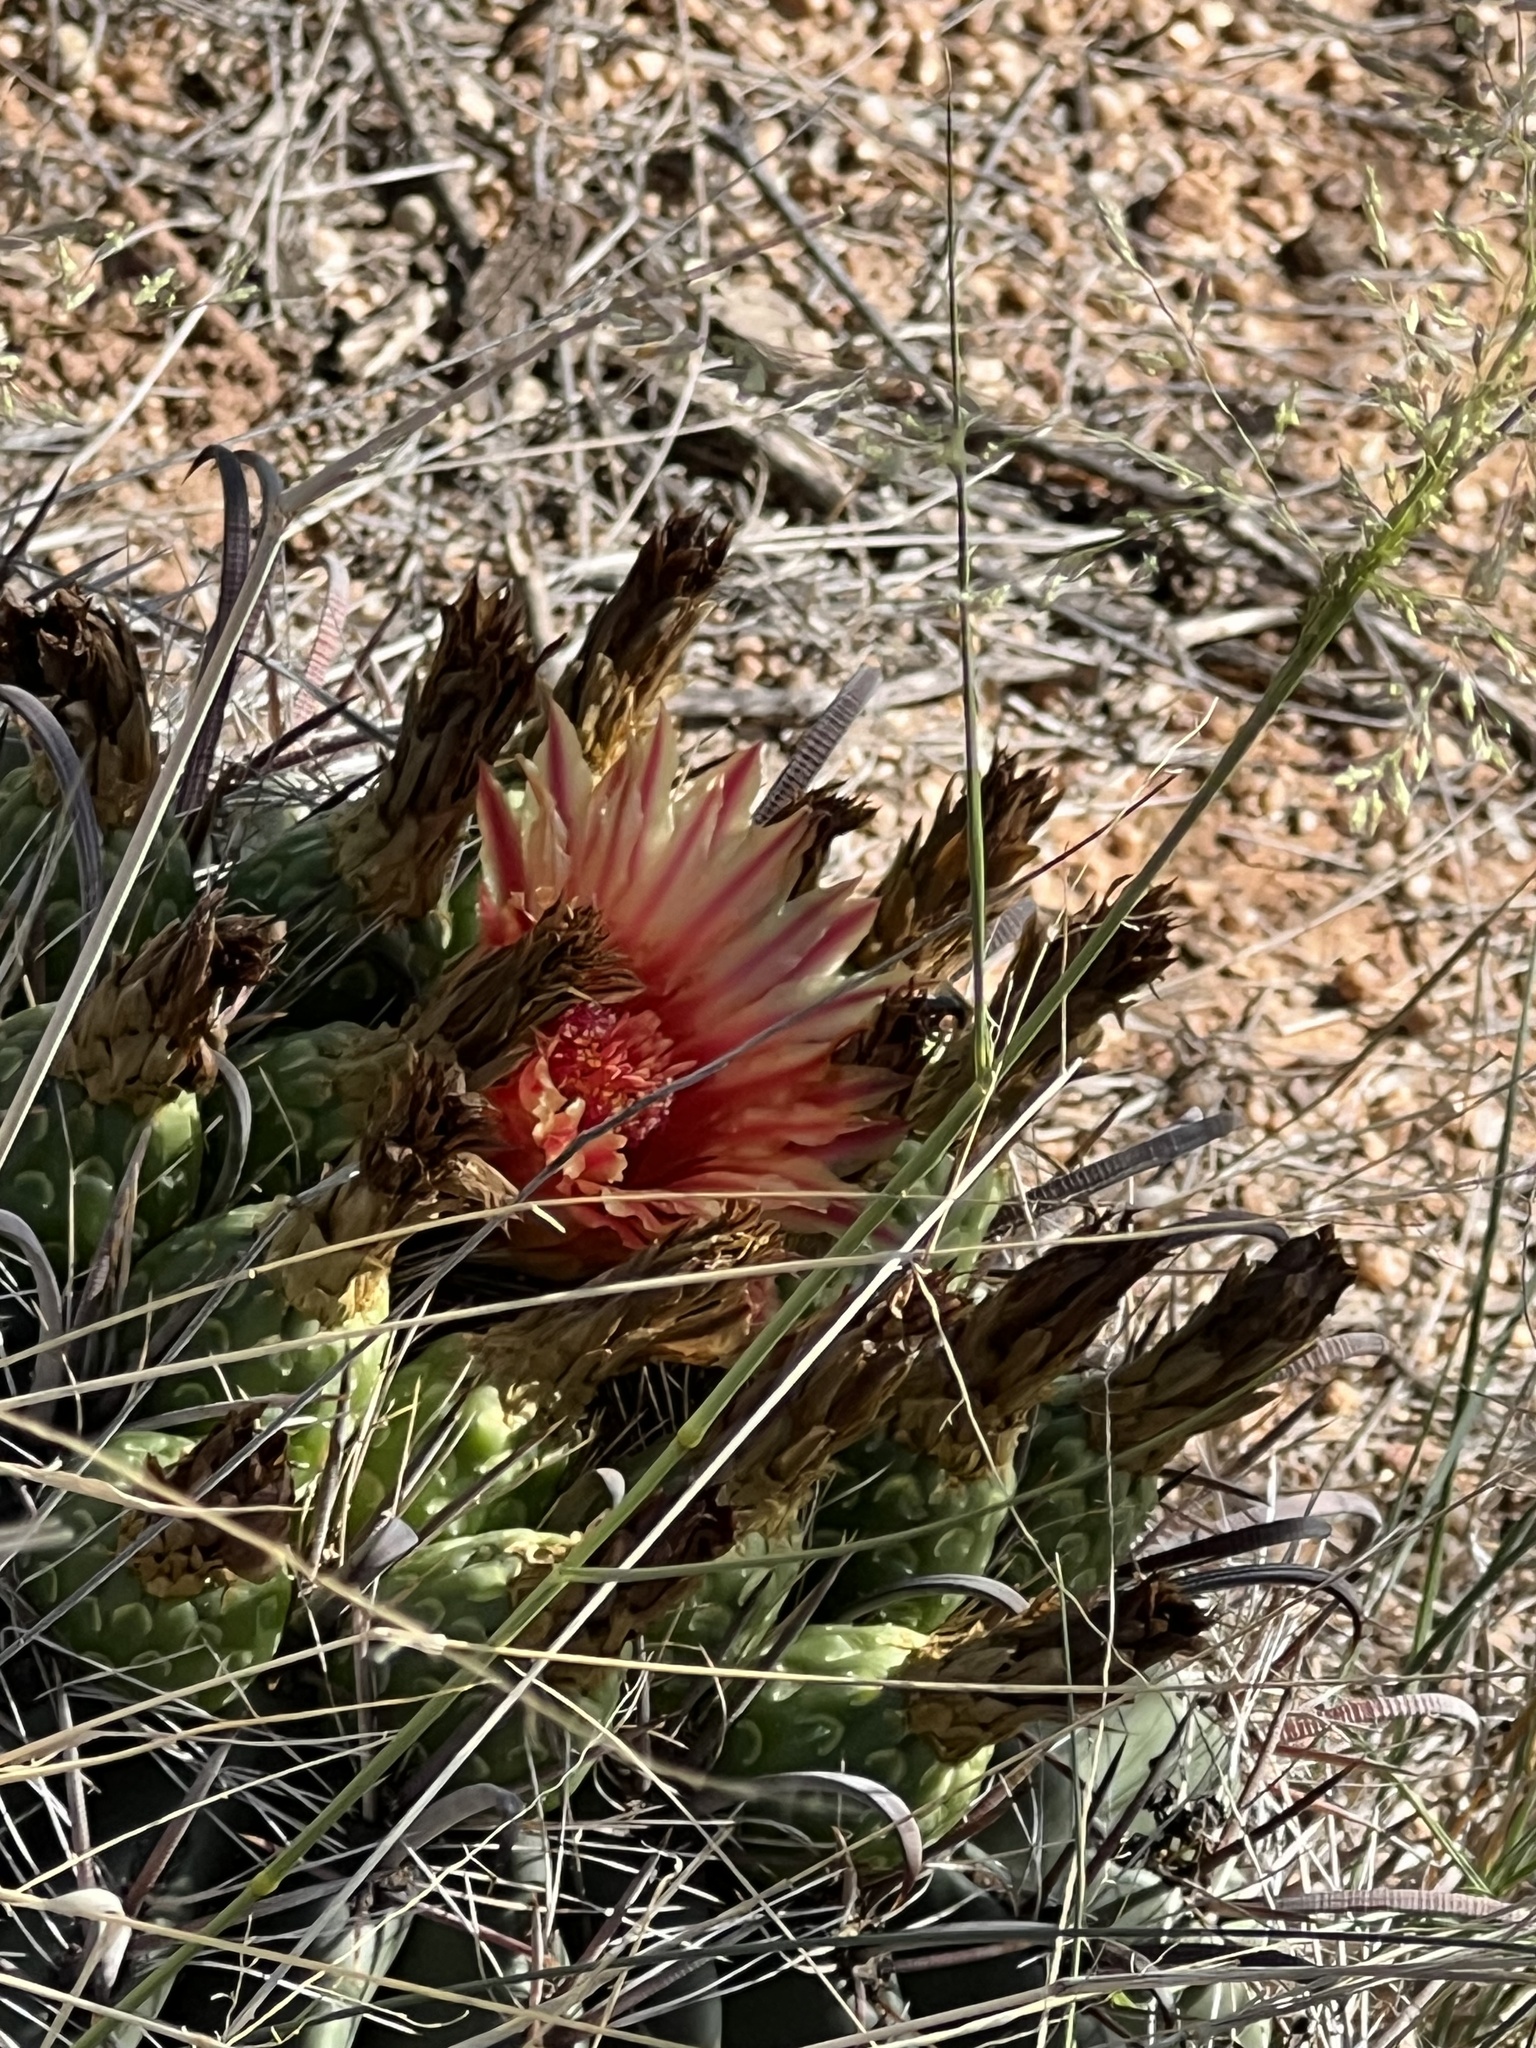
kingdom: Plantae
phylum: Tracheophyta
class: Magnoliopsida
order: Caryophyllales
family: Cactaceae
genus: Ferocactus
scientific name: Ferocactus wislizeni
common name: Candy barrel cactus
